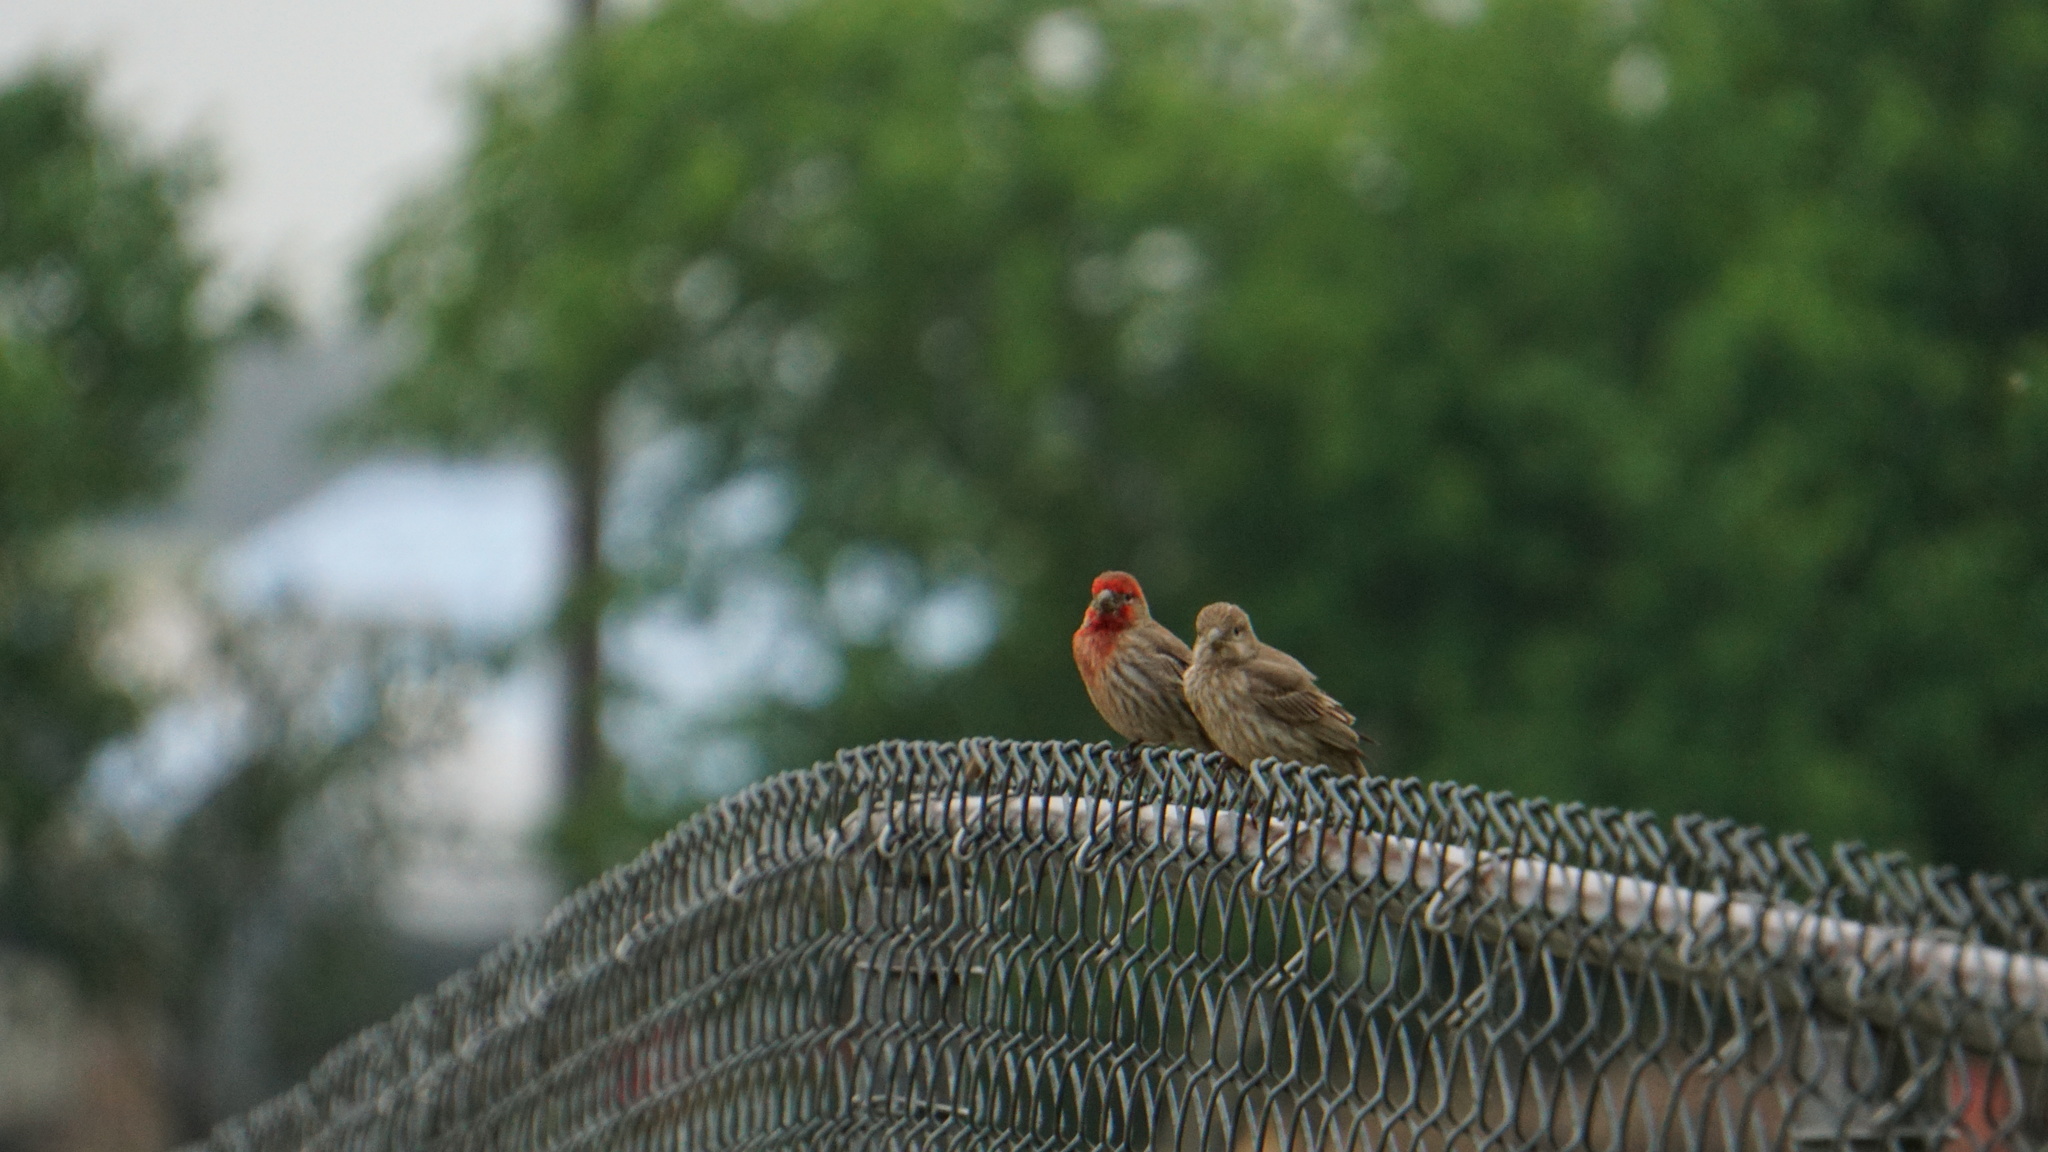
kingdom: Animalia
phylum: Chordata
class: Aves
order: Passeriformes
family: Fringillidae
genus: Haemorhous
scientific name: Haemorhous mexicanus
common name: House finch
